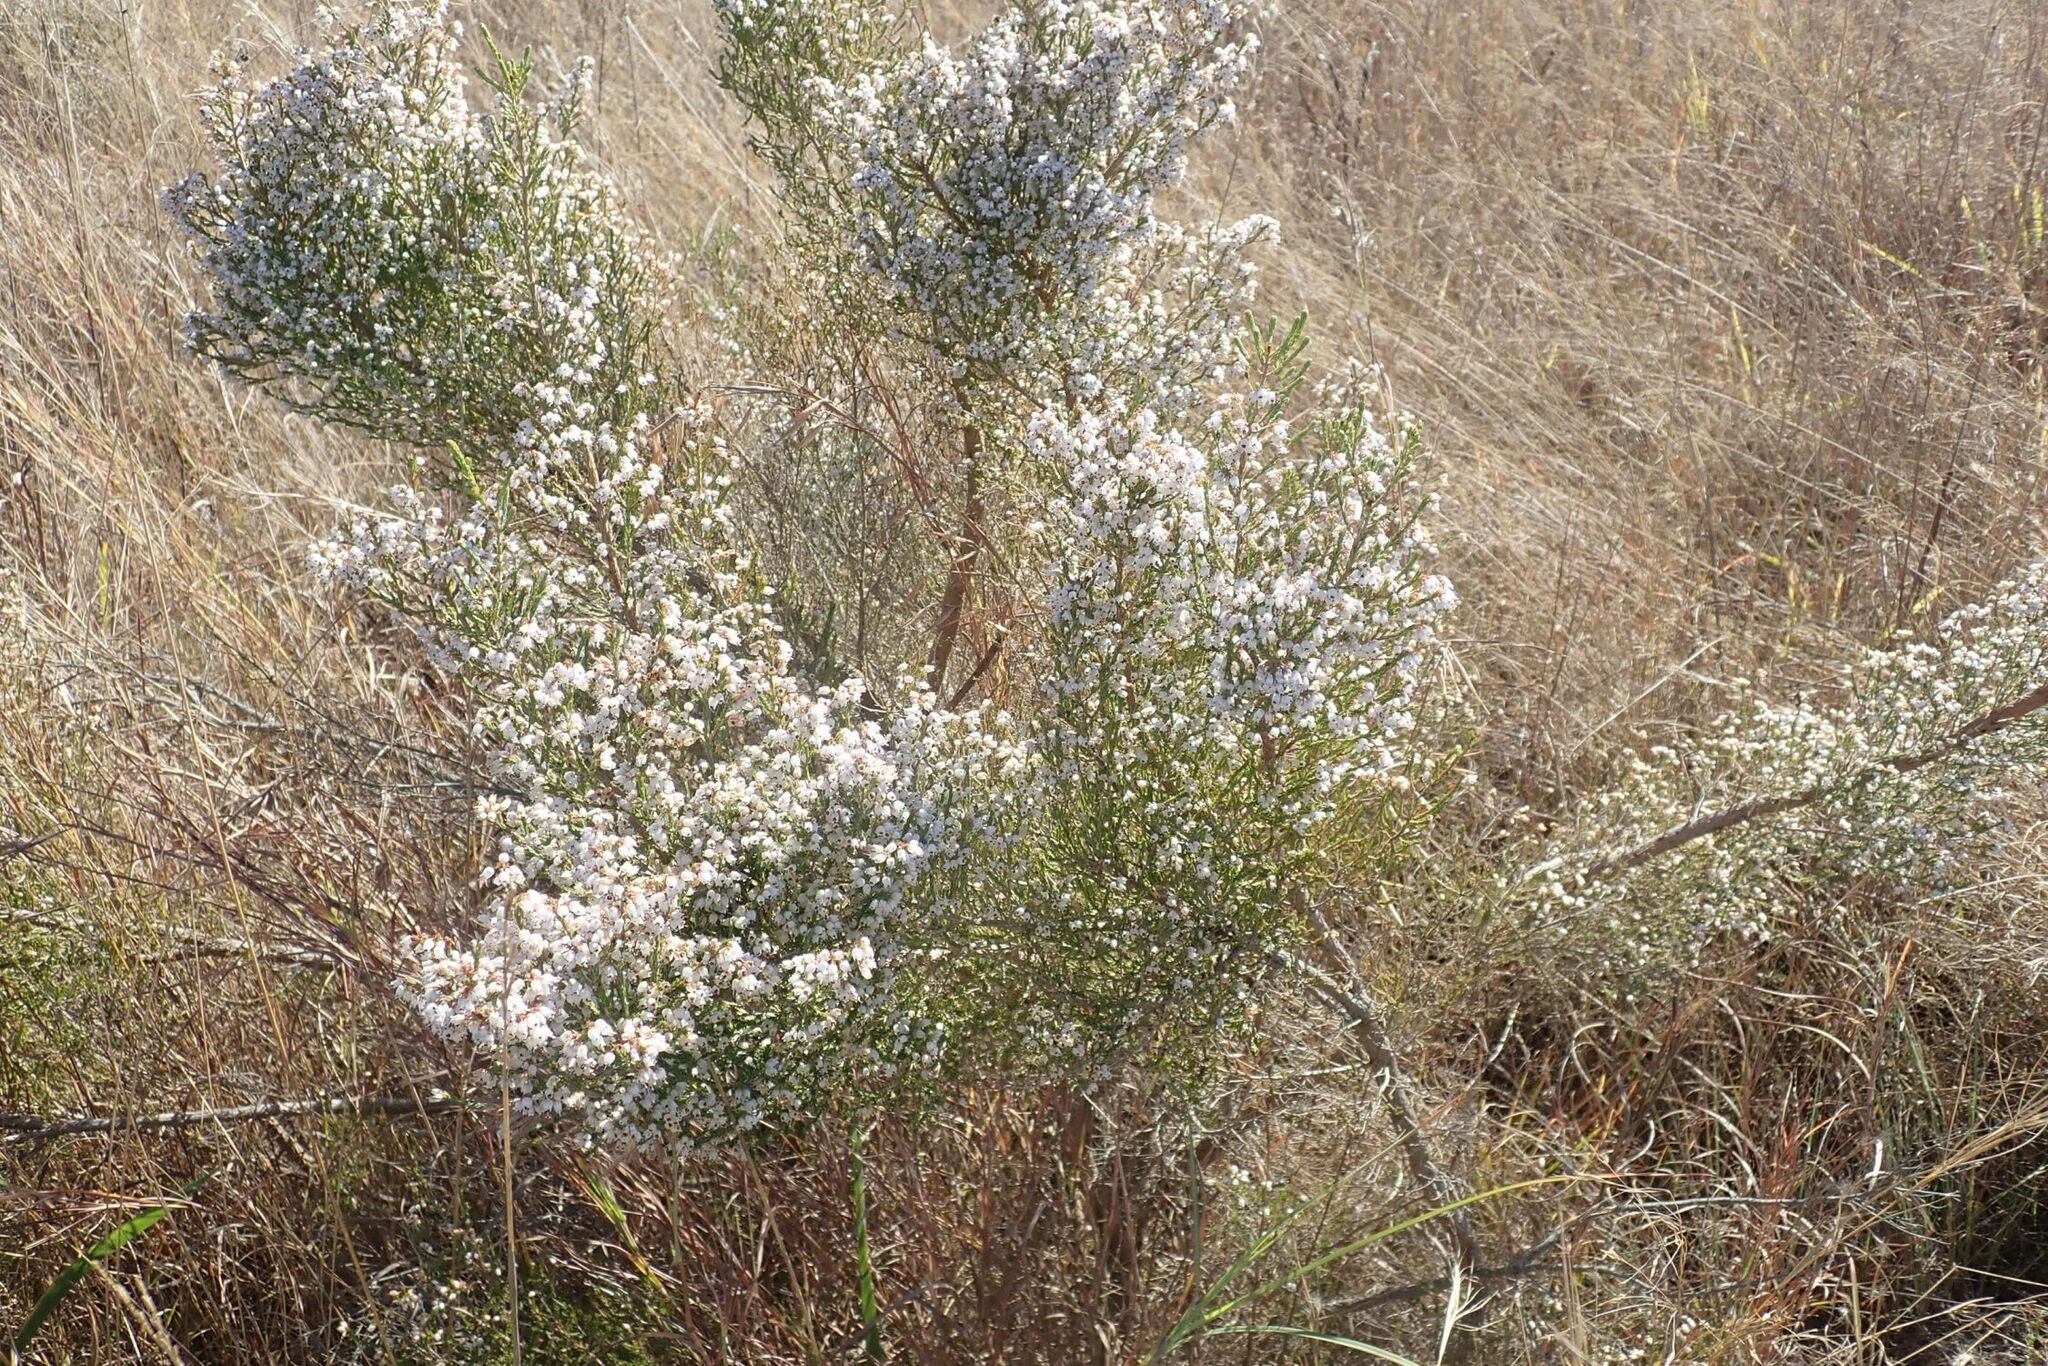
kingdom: Plantae
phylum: Tracheophyta
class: Magnoliopsida
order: Ericales
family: Ericaceae
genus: Erica
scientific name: Erica drakensbergensis
